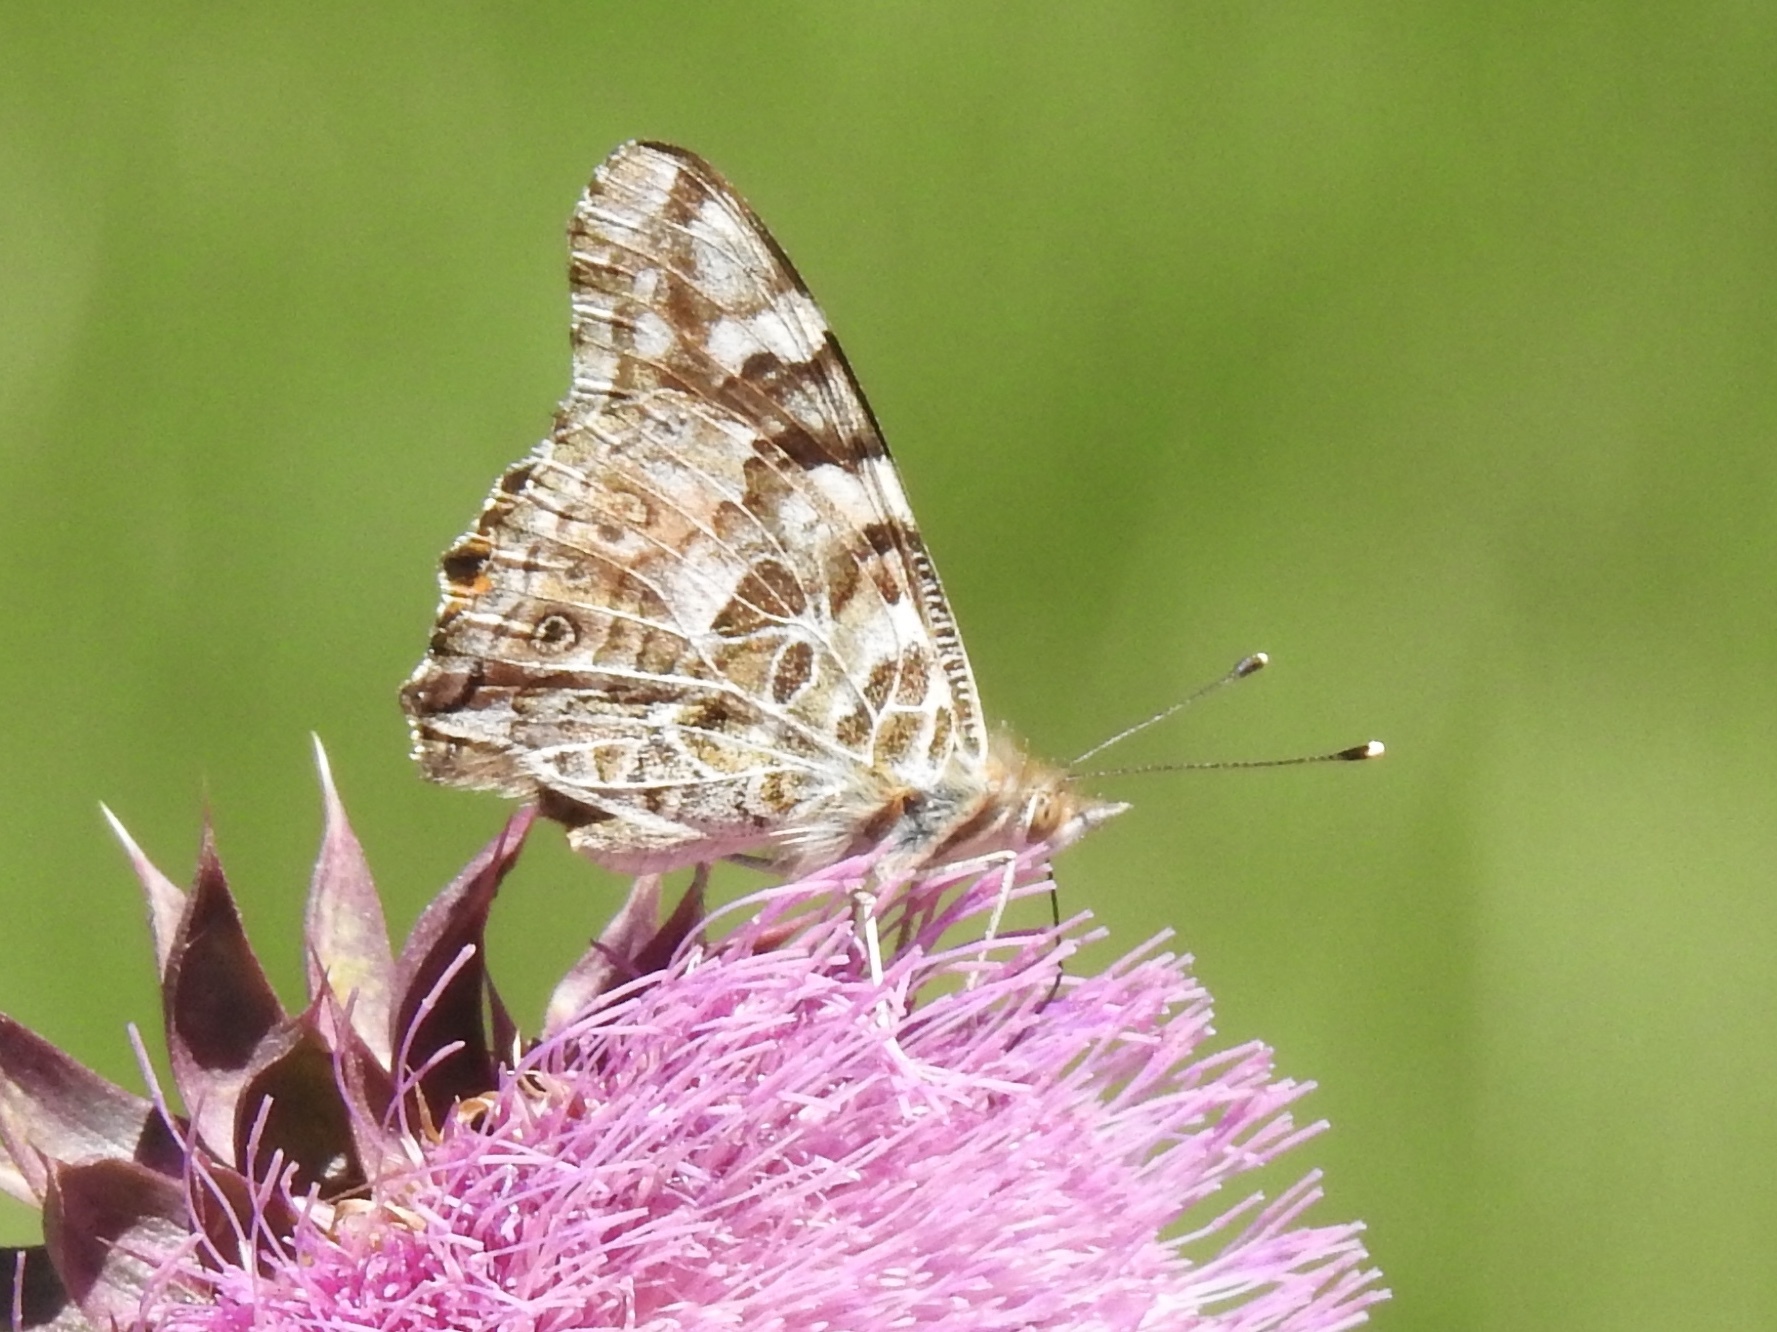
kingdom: Animalia
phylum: Arthropoda
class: Insecta
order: Lepidoptera
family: Nymphalidae
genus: Vanessa
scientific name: Vanessa cardui
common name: Painted lady
